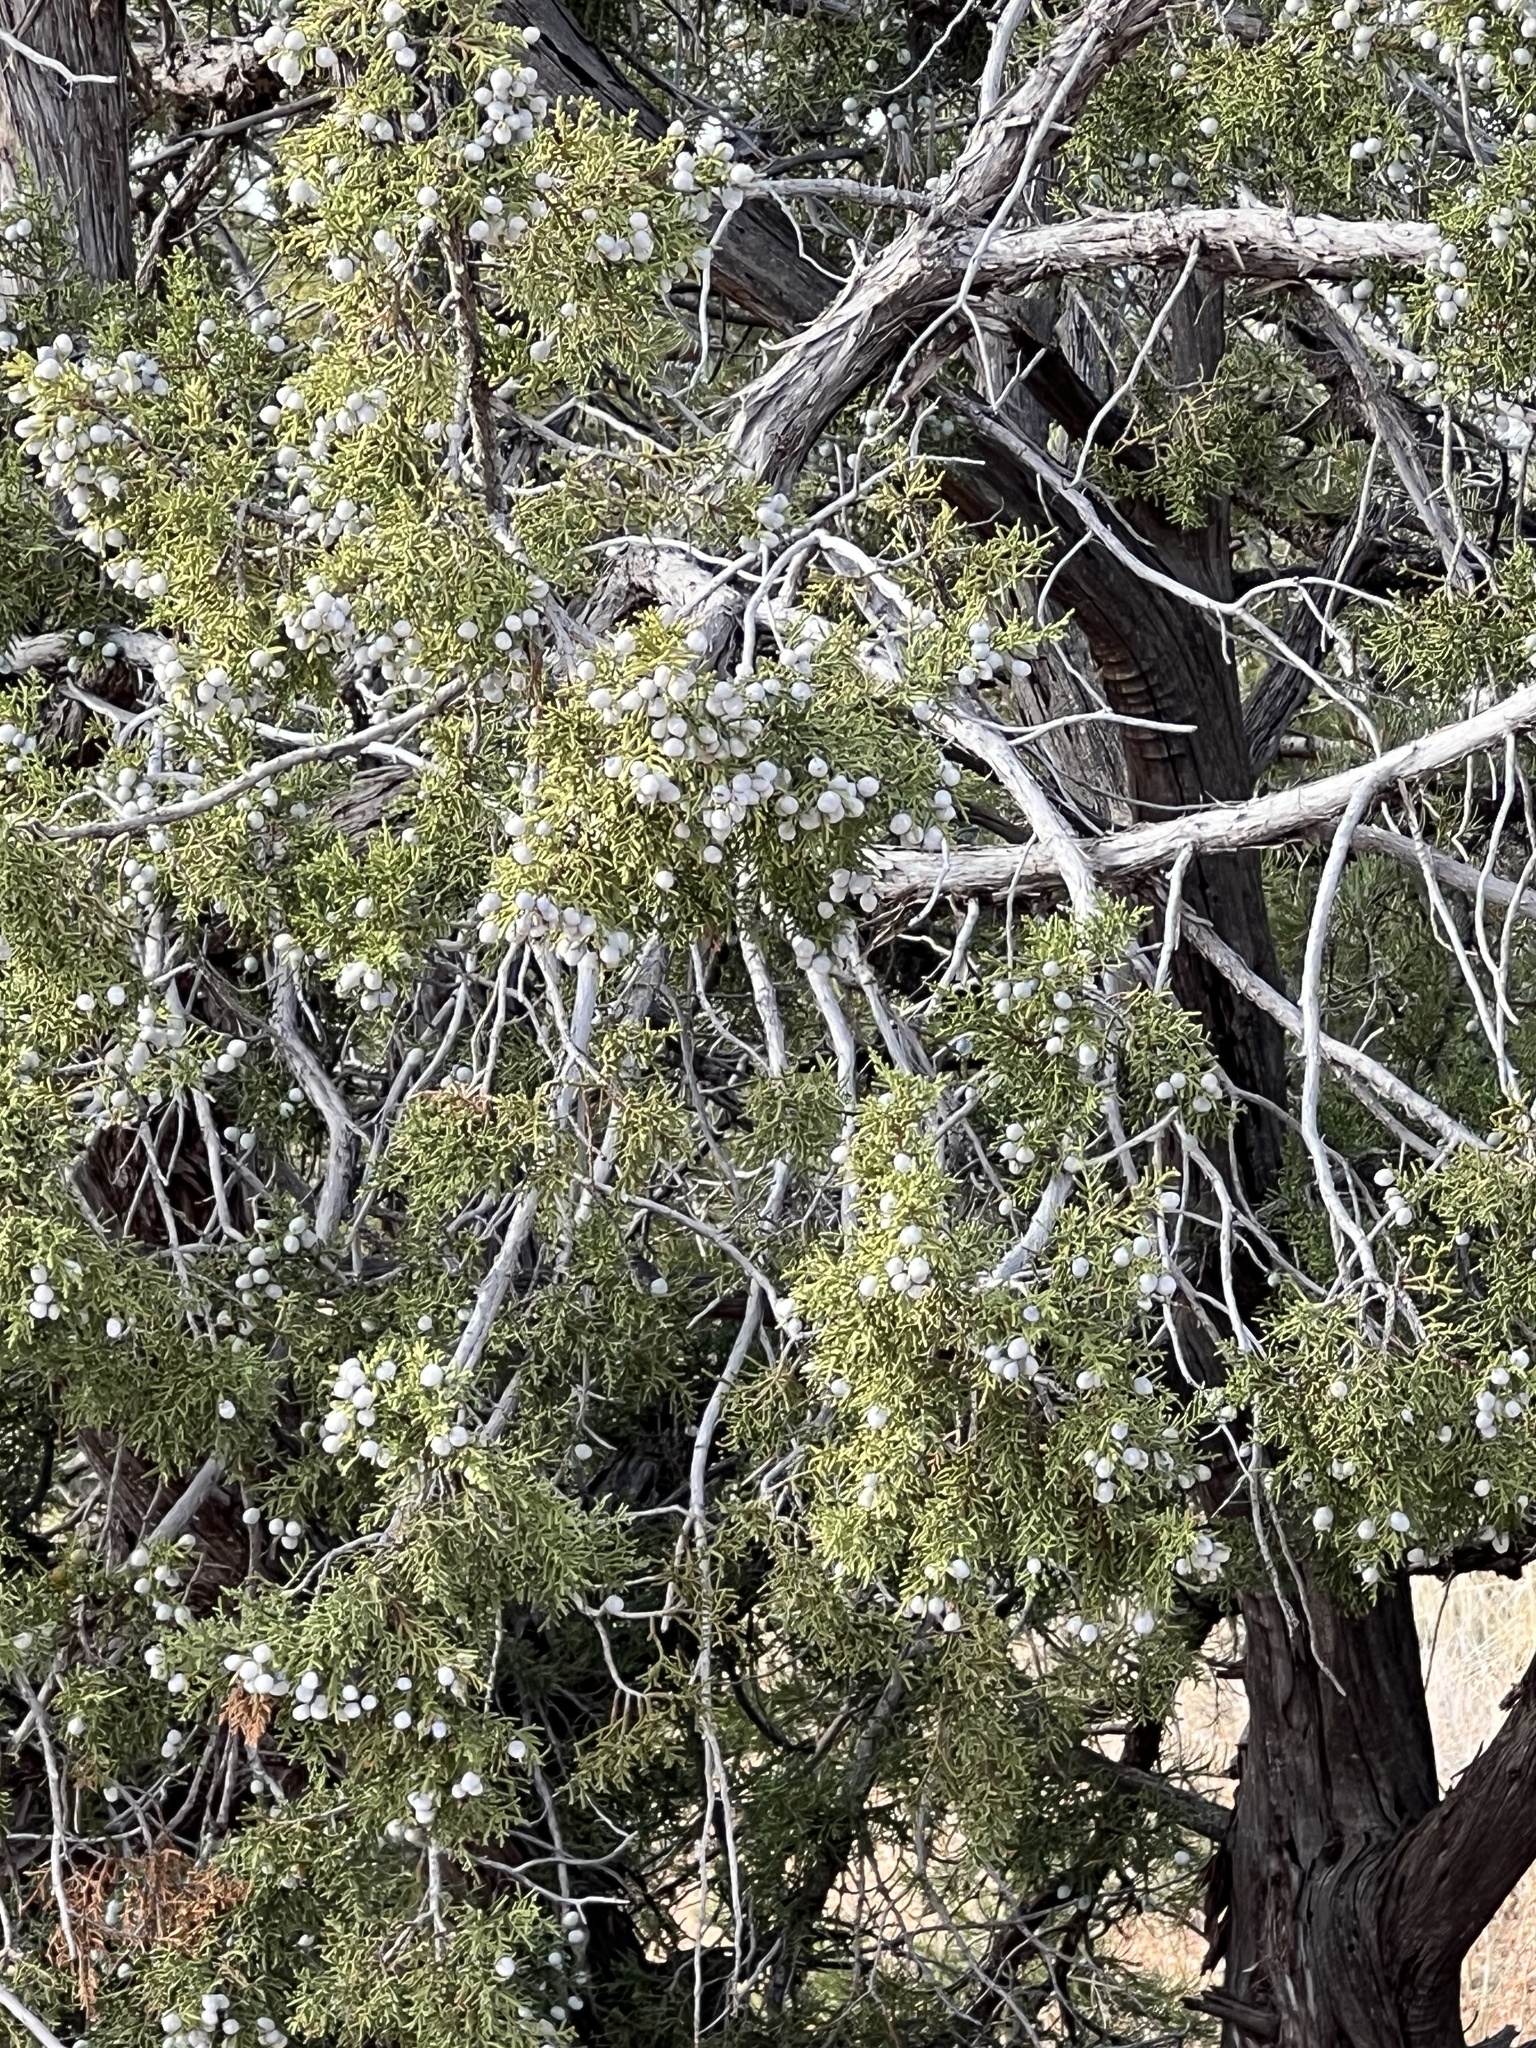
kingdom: Plantae
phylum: Tracheophyta
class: Pinopsida
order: Pinales
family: Cupressaceae
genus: Juniperus
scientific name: Juniperus osteosperma
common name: Utah juniper
